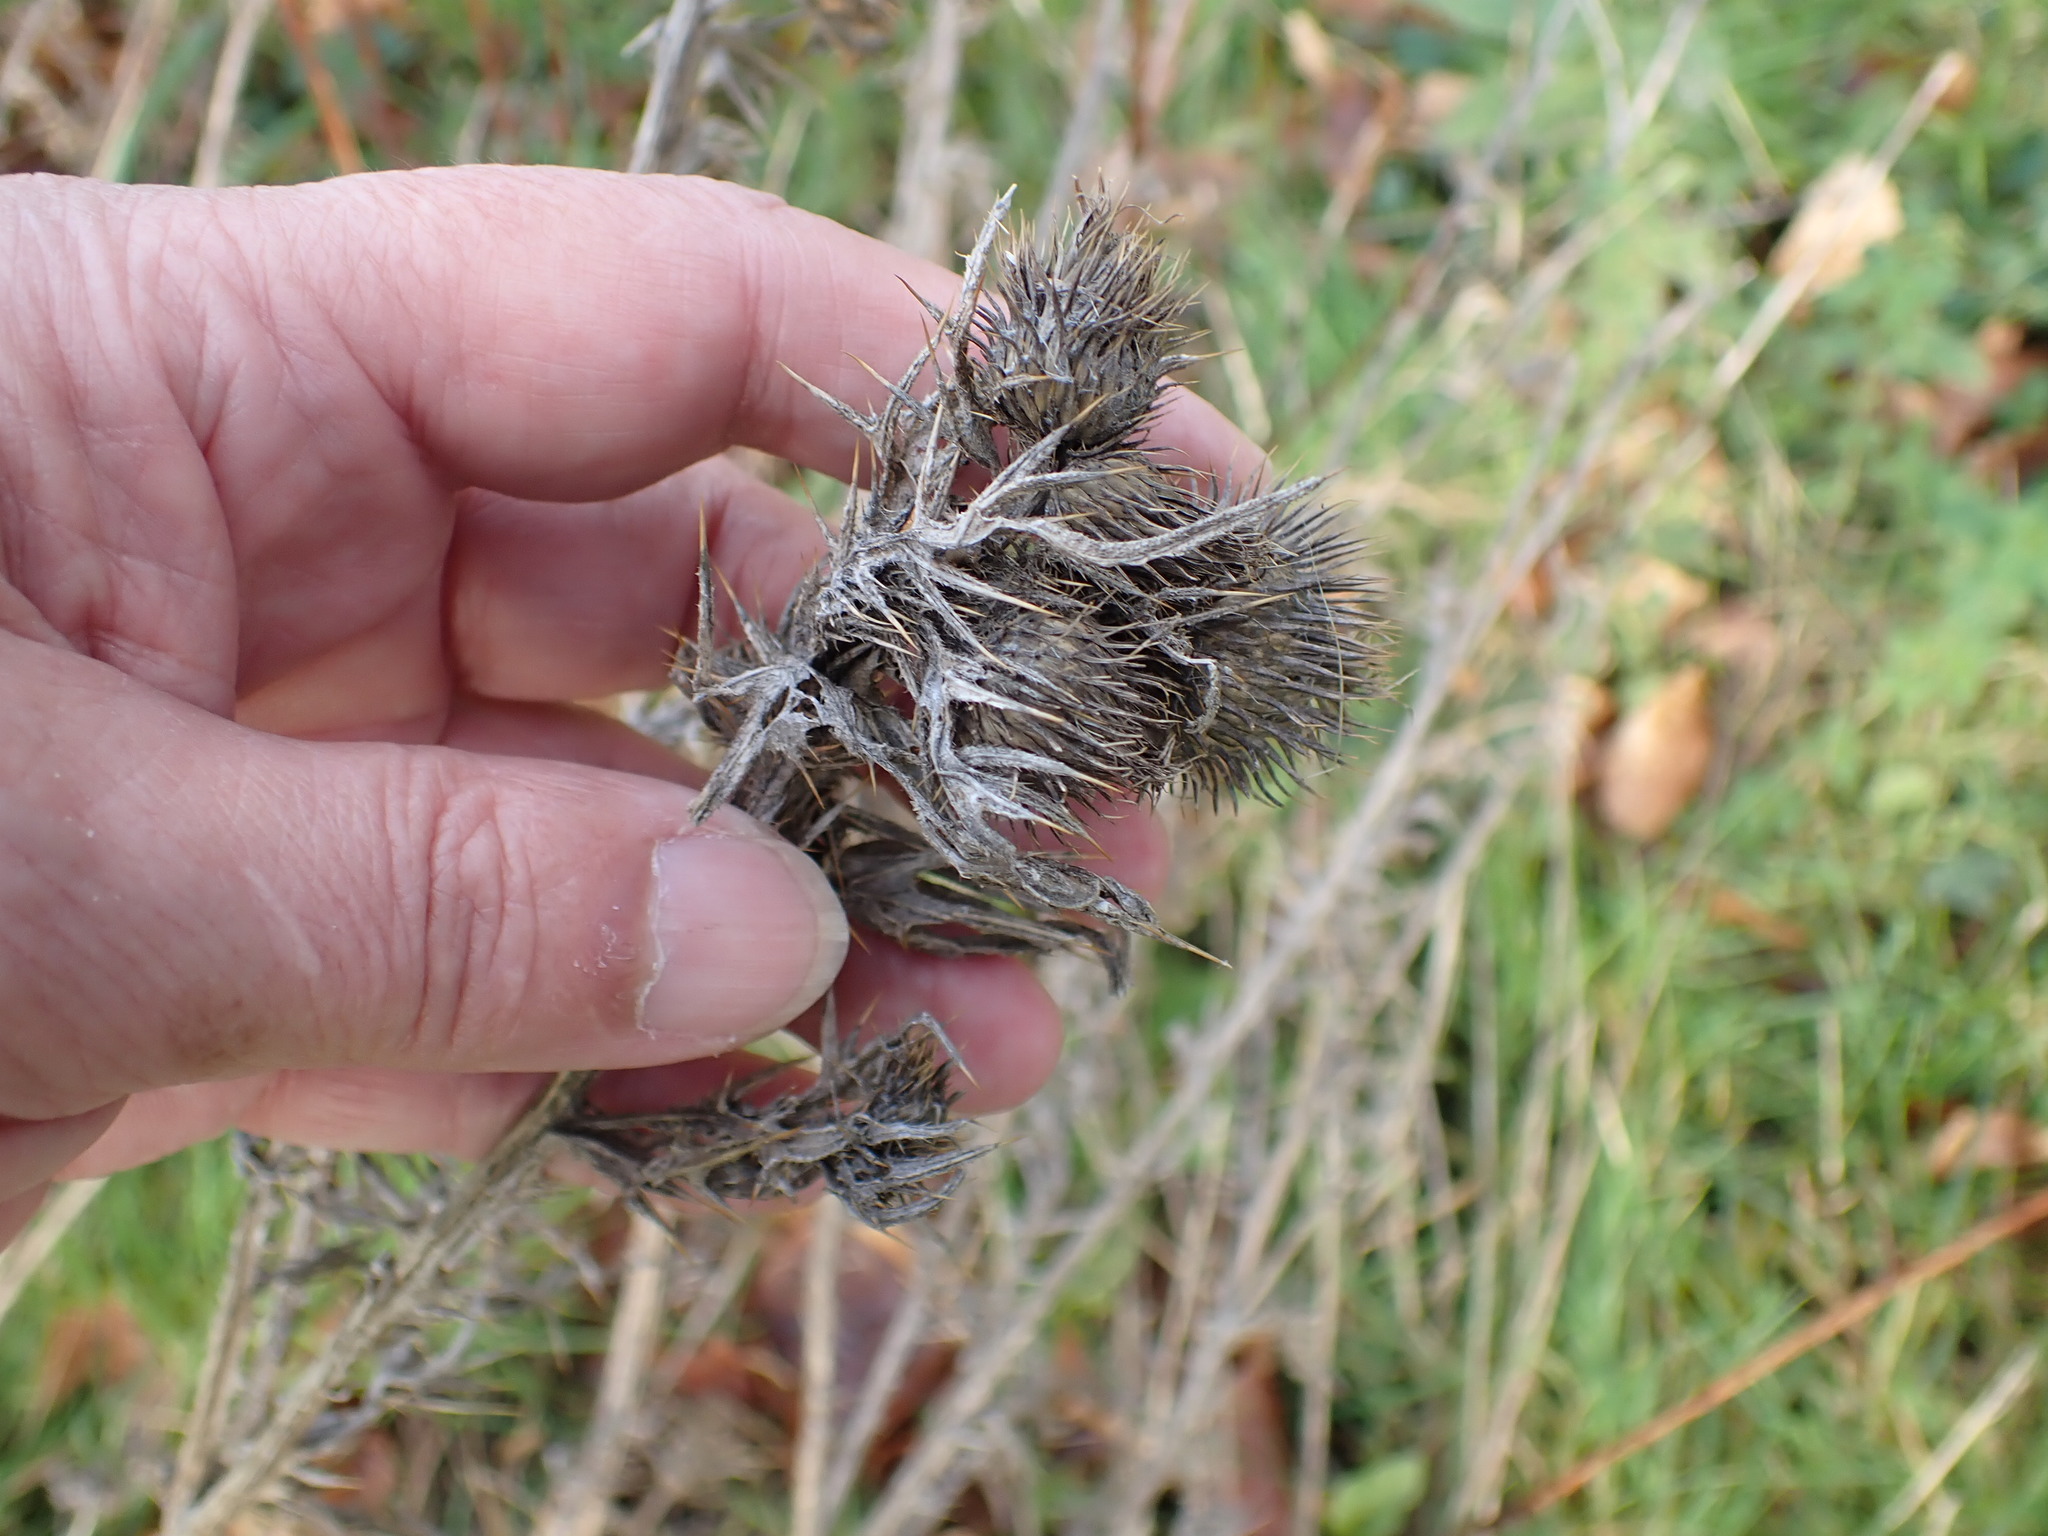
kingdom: Plantae
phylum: Tracheophyta
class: Magnoliopsida
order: Asterales
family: Asteraceae
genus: Cirsium
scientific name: Cirsium vulgare
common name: Bull thistle
